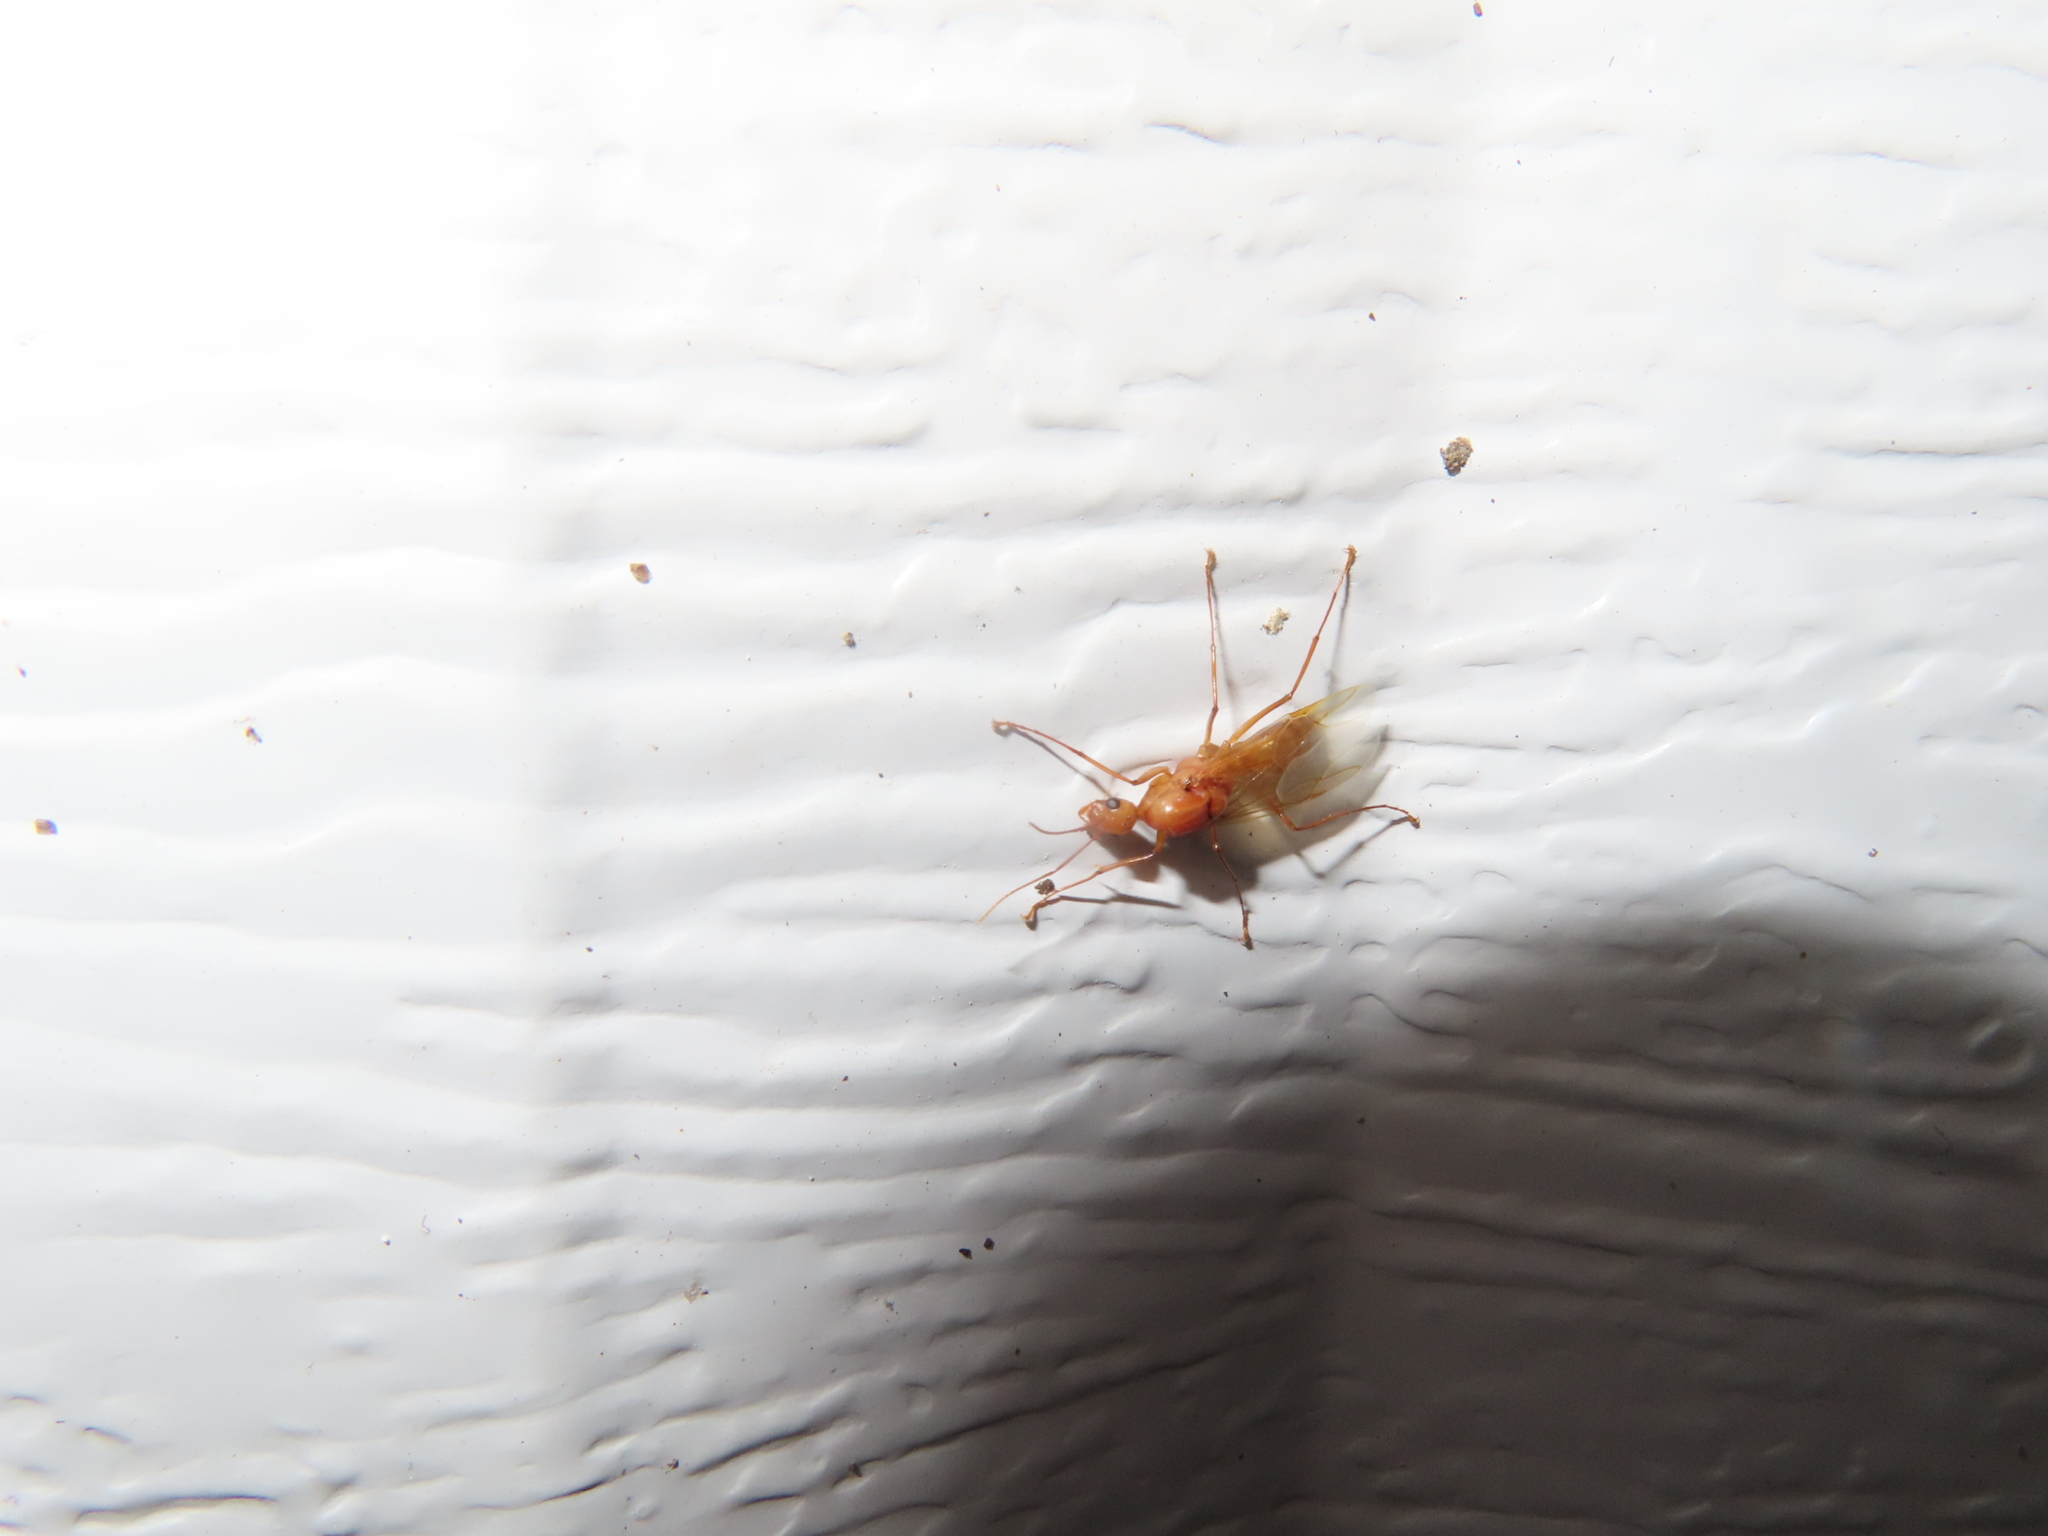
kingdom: Animalia
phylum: Arthropoda
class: Insecta
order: Hymenoptera
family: Formicidae
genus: Camponotus
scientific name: Camponotus castaneus
